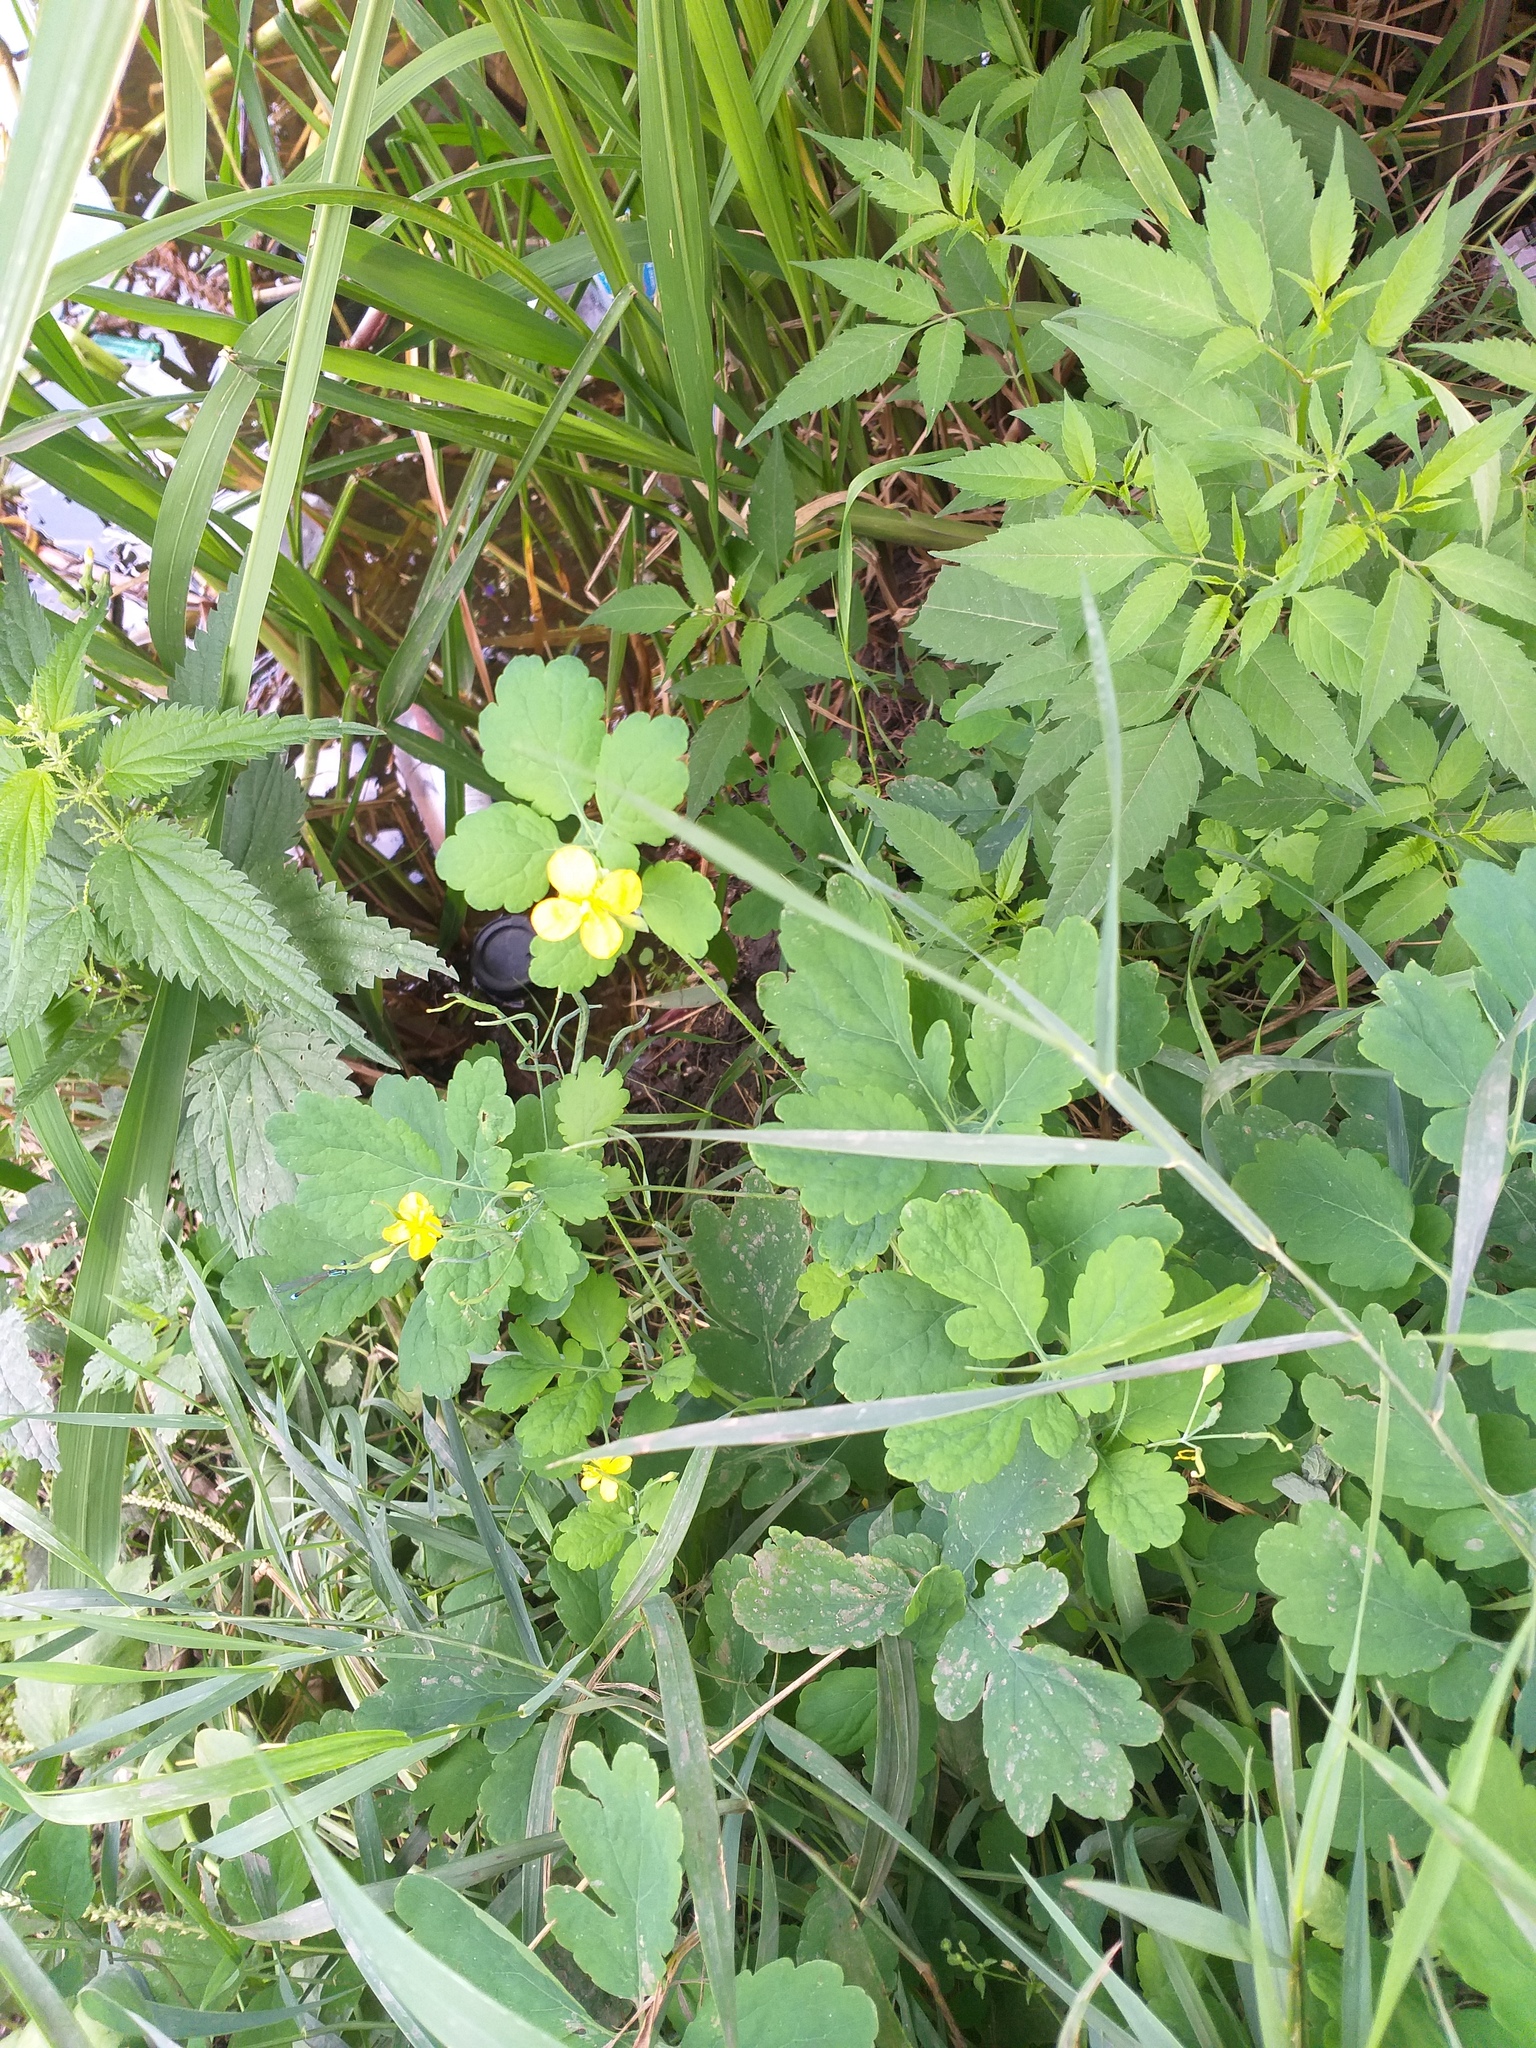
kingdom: Plantae
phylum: Tracheophyta
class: Magnoliopsida
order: Ranunculales
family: Papaveraceae
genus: Chelidonium
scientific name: Chelidonium majus
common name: Greater celandine
